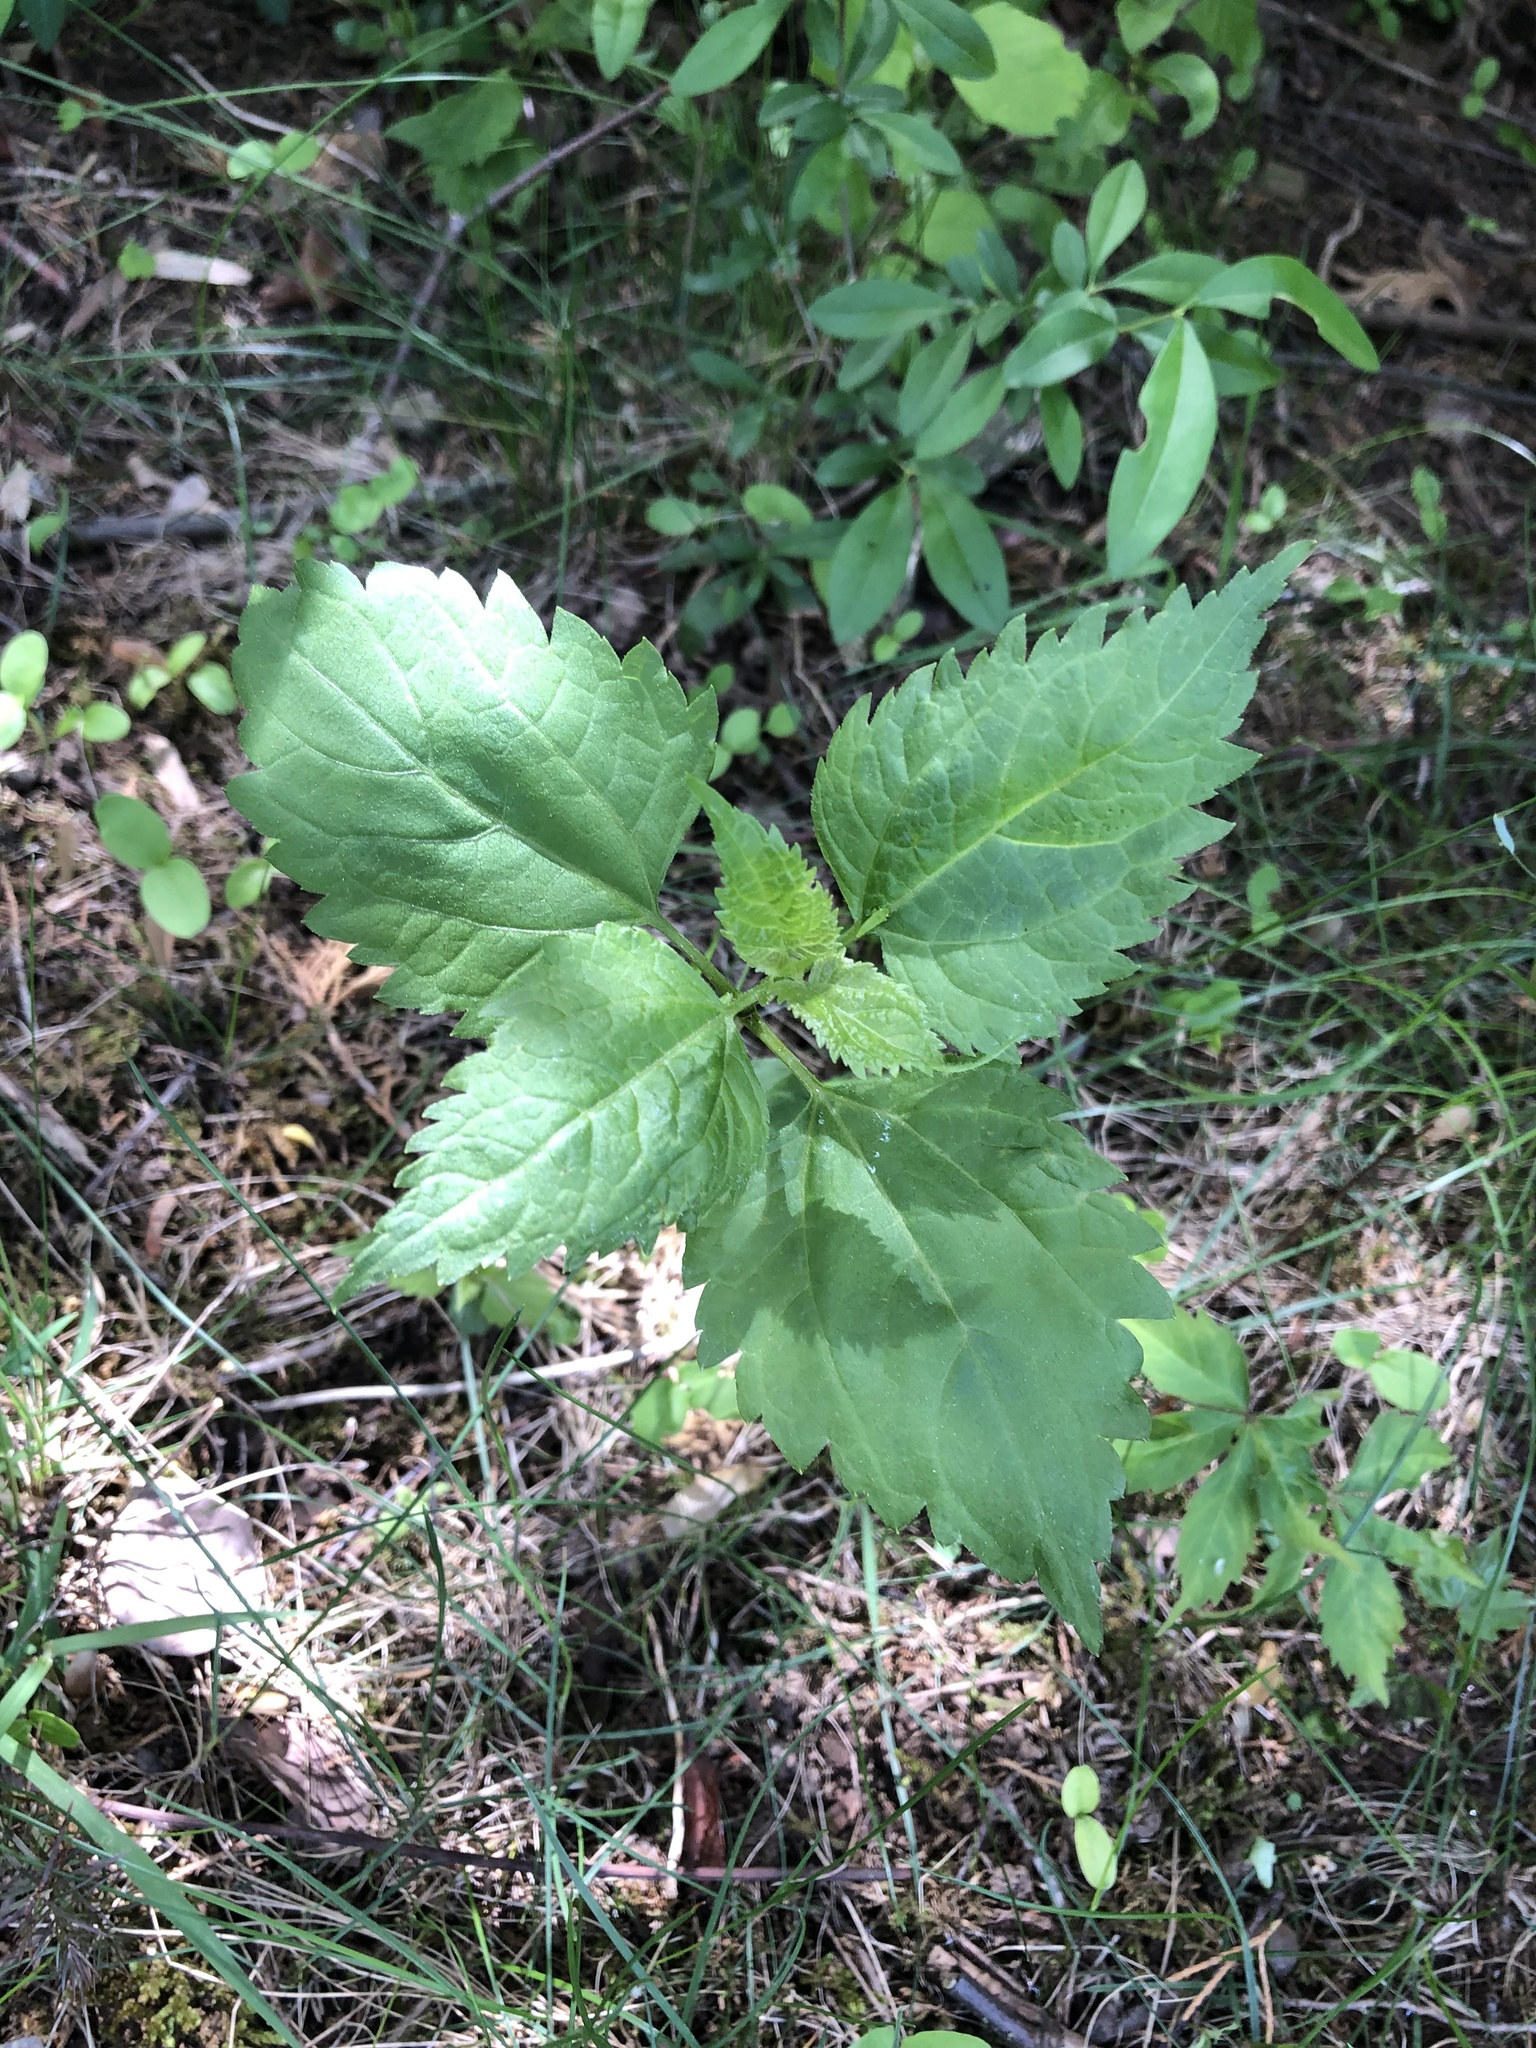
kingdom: Plantae
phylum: Tracheophyta
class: Magnoliopsida
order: Asterales
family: Asteraceae
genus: Ageratina
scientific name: Ageratina altissima
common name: White snakeroot
